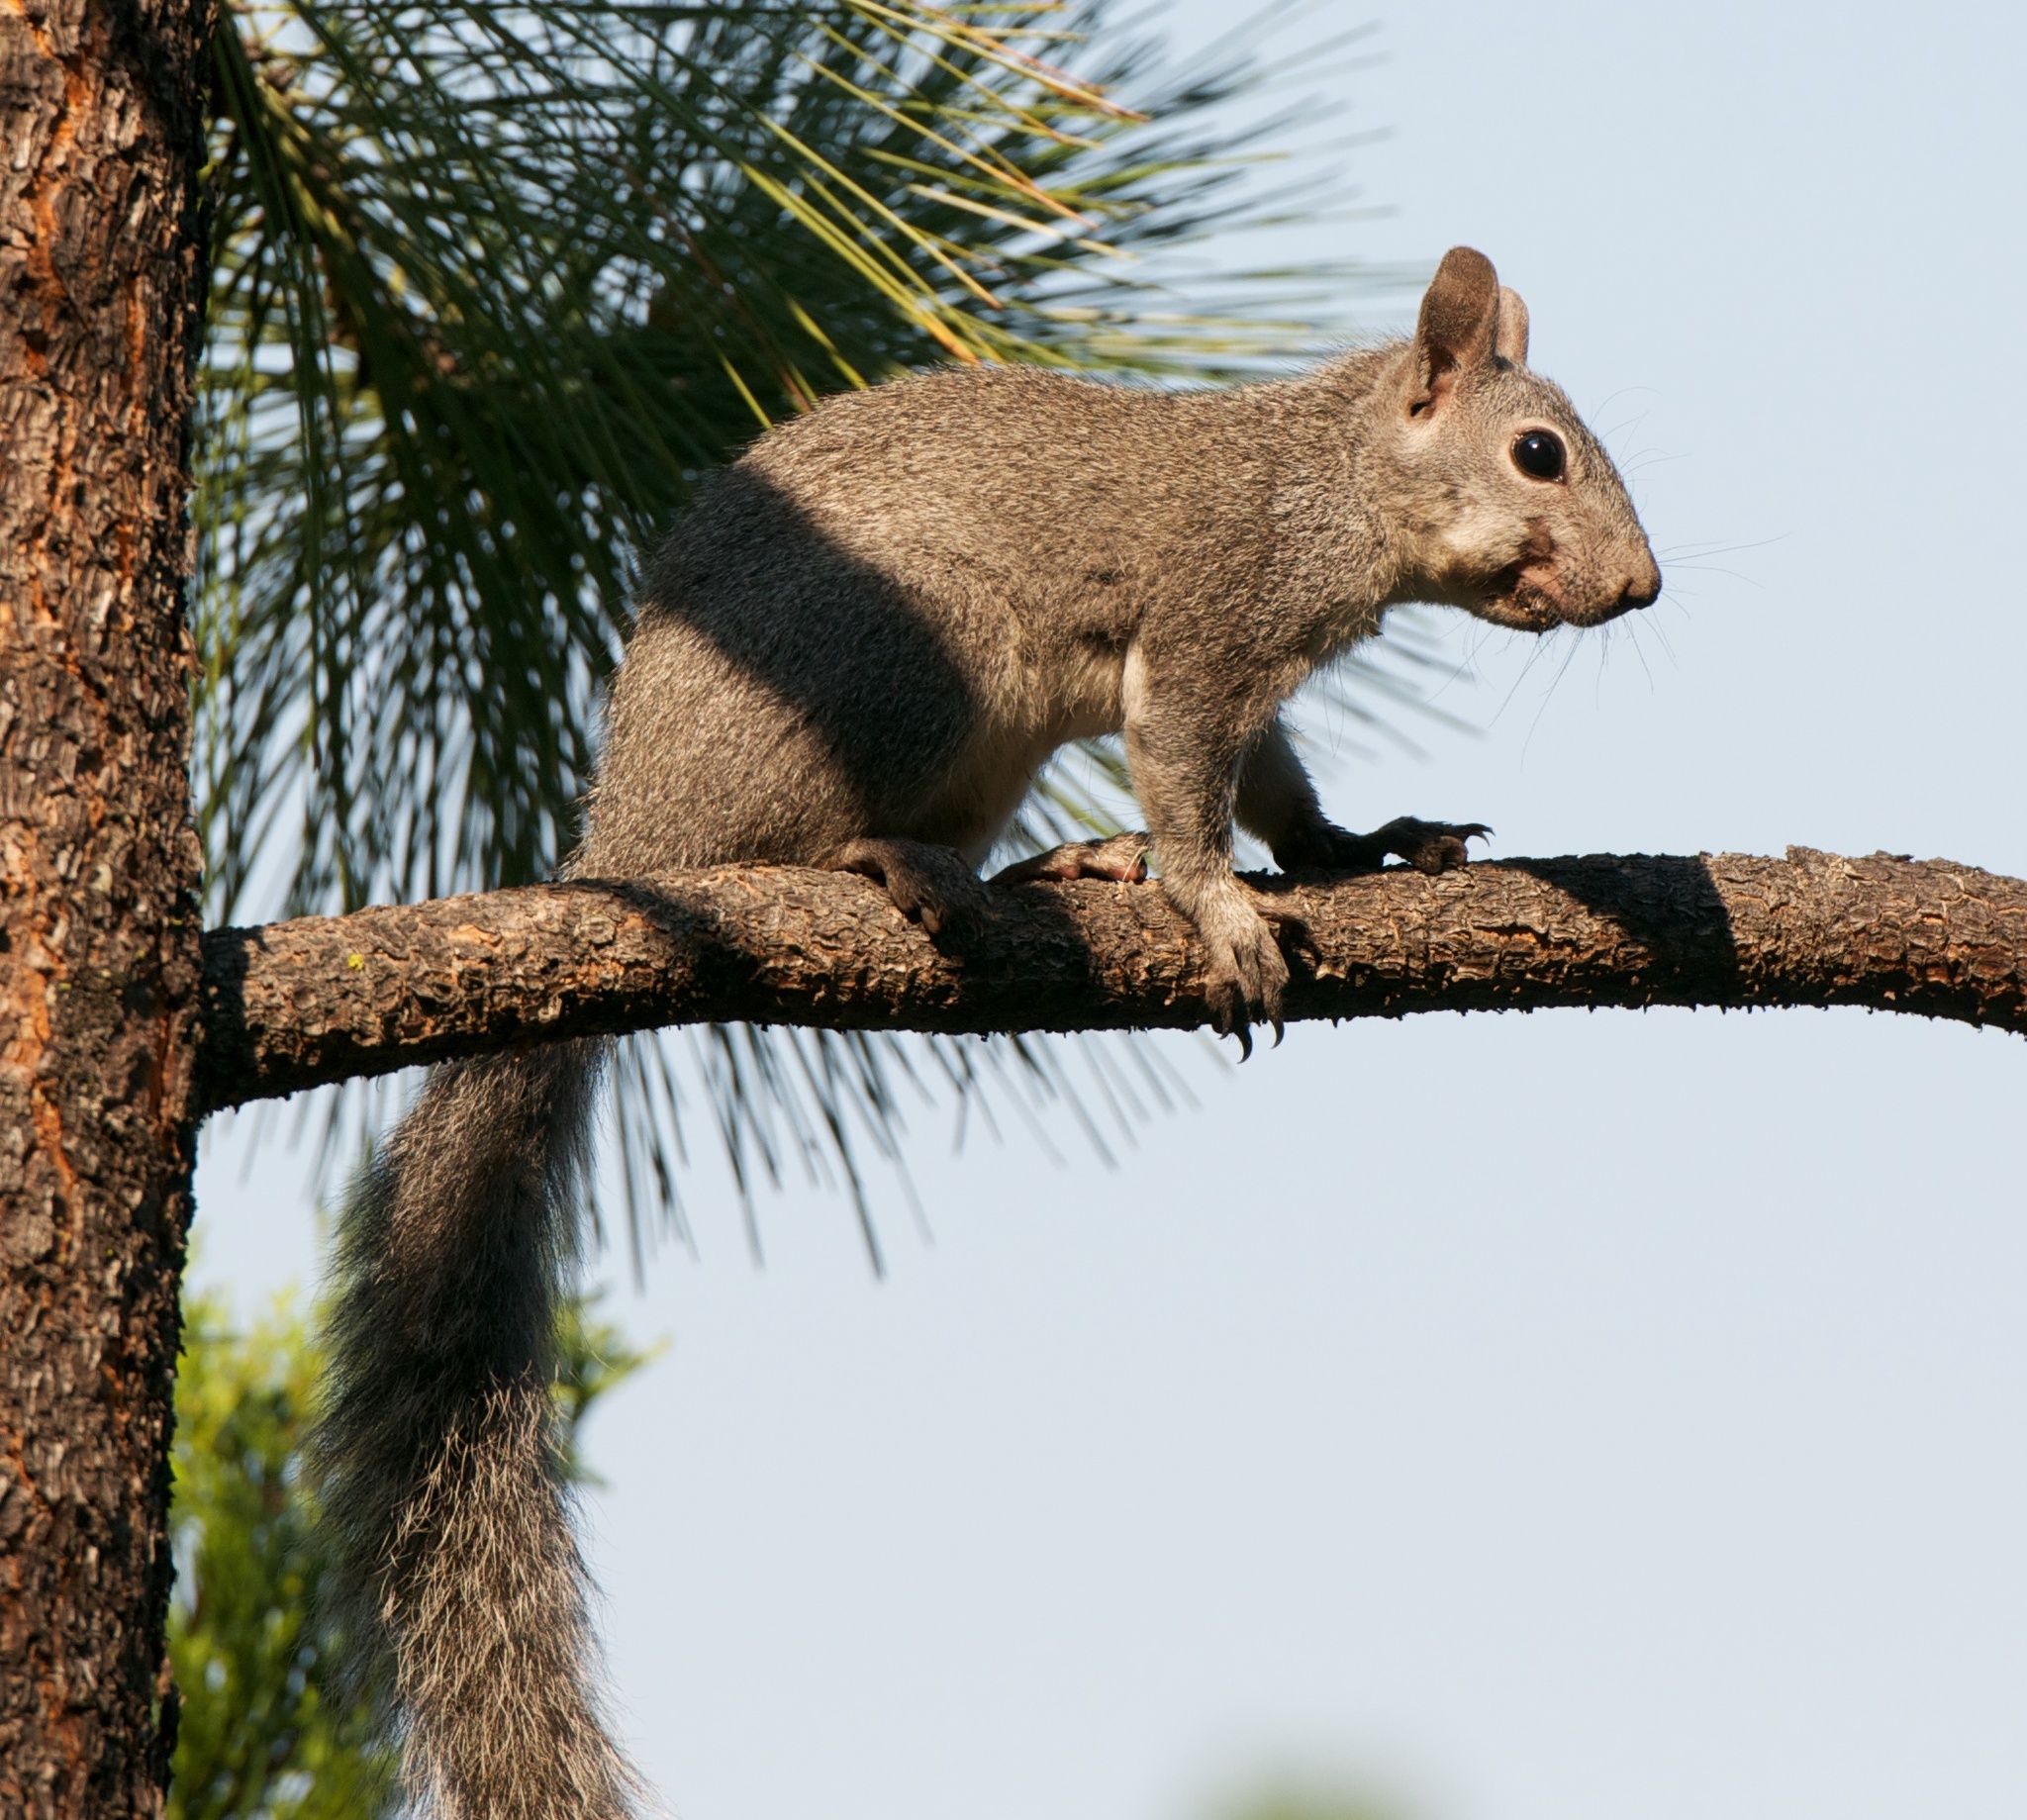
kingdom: Animalia
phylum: Chordata
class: Mammalia
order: Rodentia
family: Sciuridae
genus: Sciurus
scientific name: Sciurus griseus
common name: Western gray squirrel
